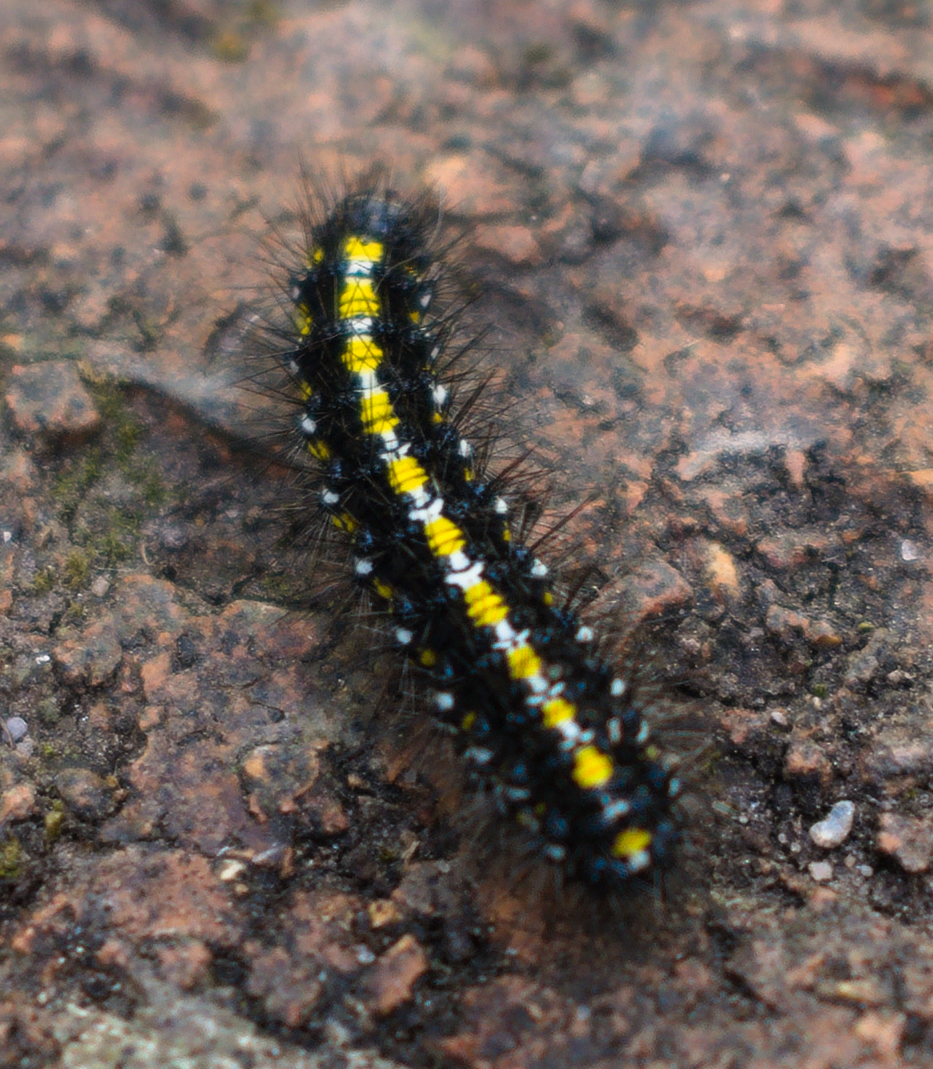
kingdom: Animalia
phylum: Arthropoda
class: Insecta
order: Lepidoptera
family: Erebidae
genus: Callimorpha
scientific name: Callimorpha dominula
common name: Scarlet tiger
